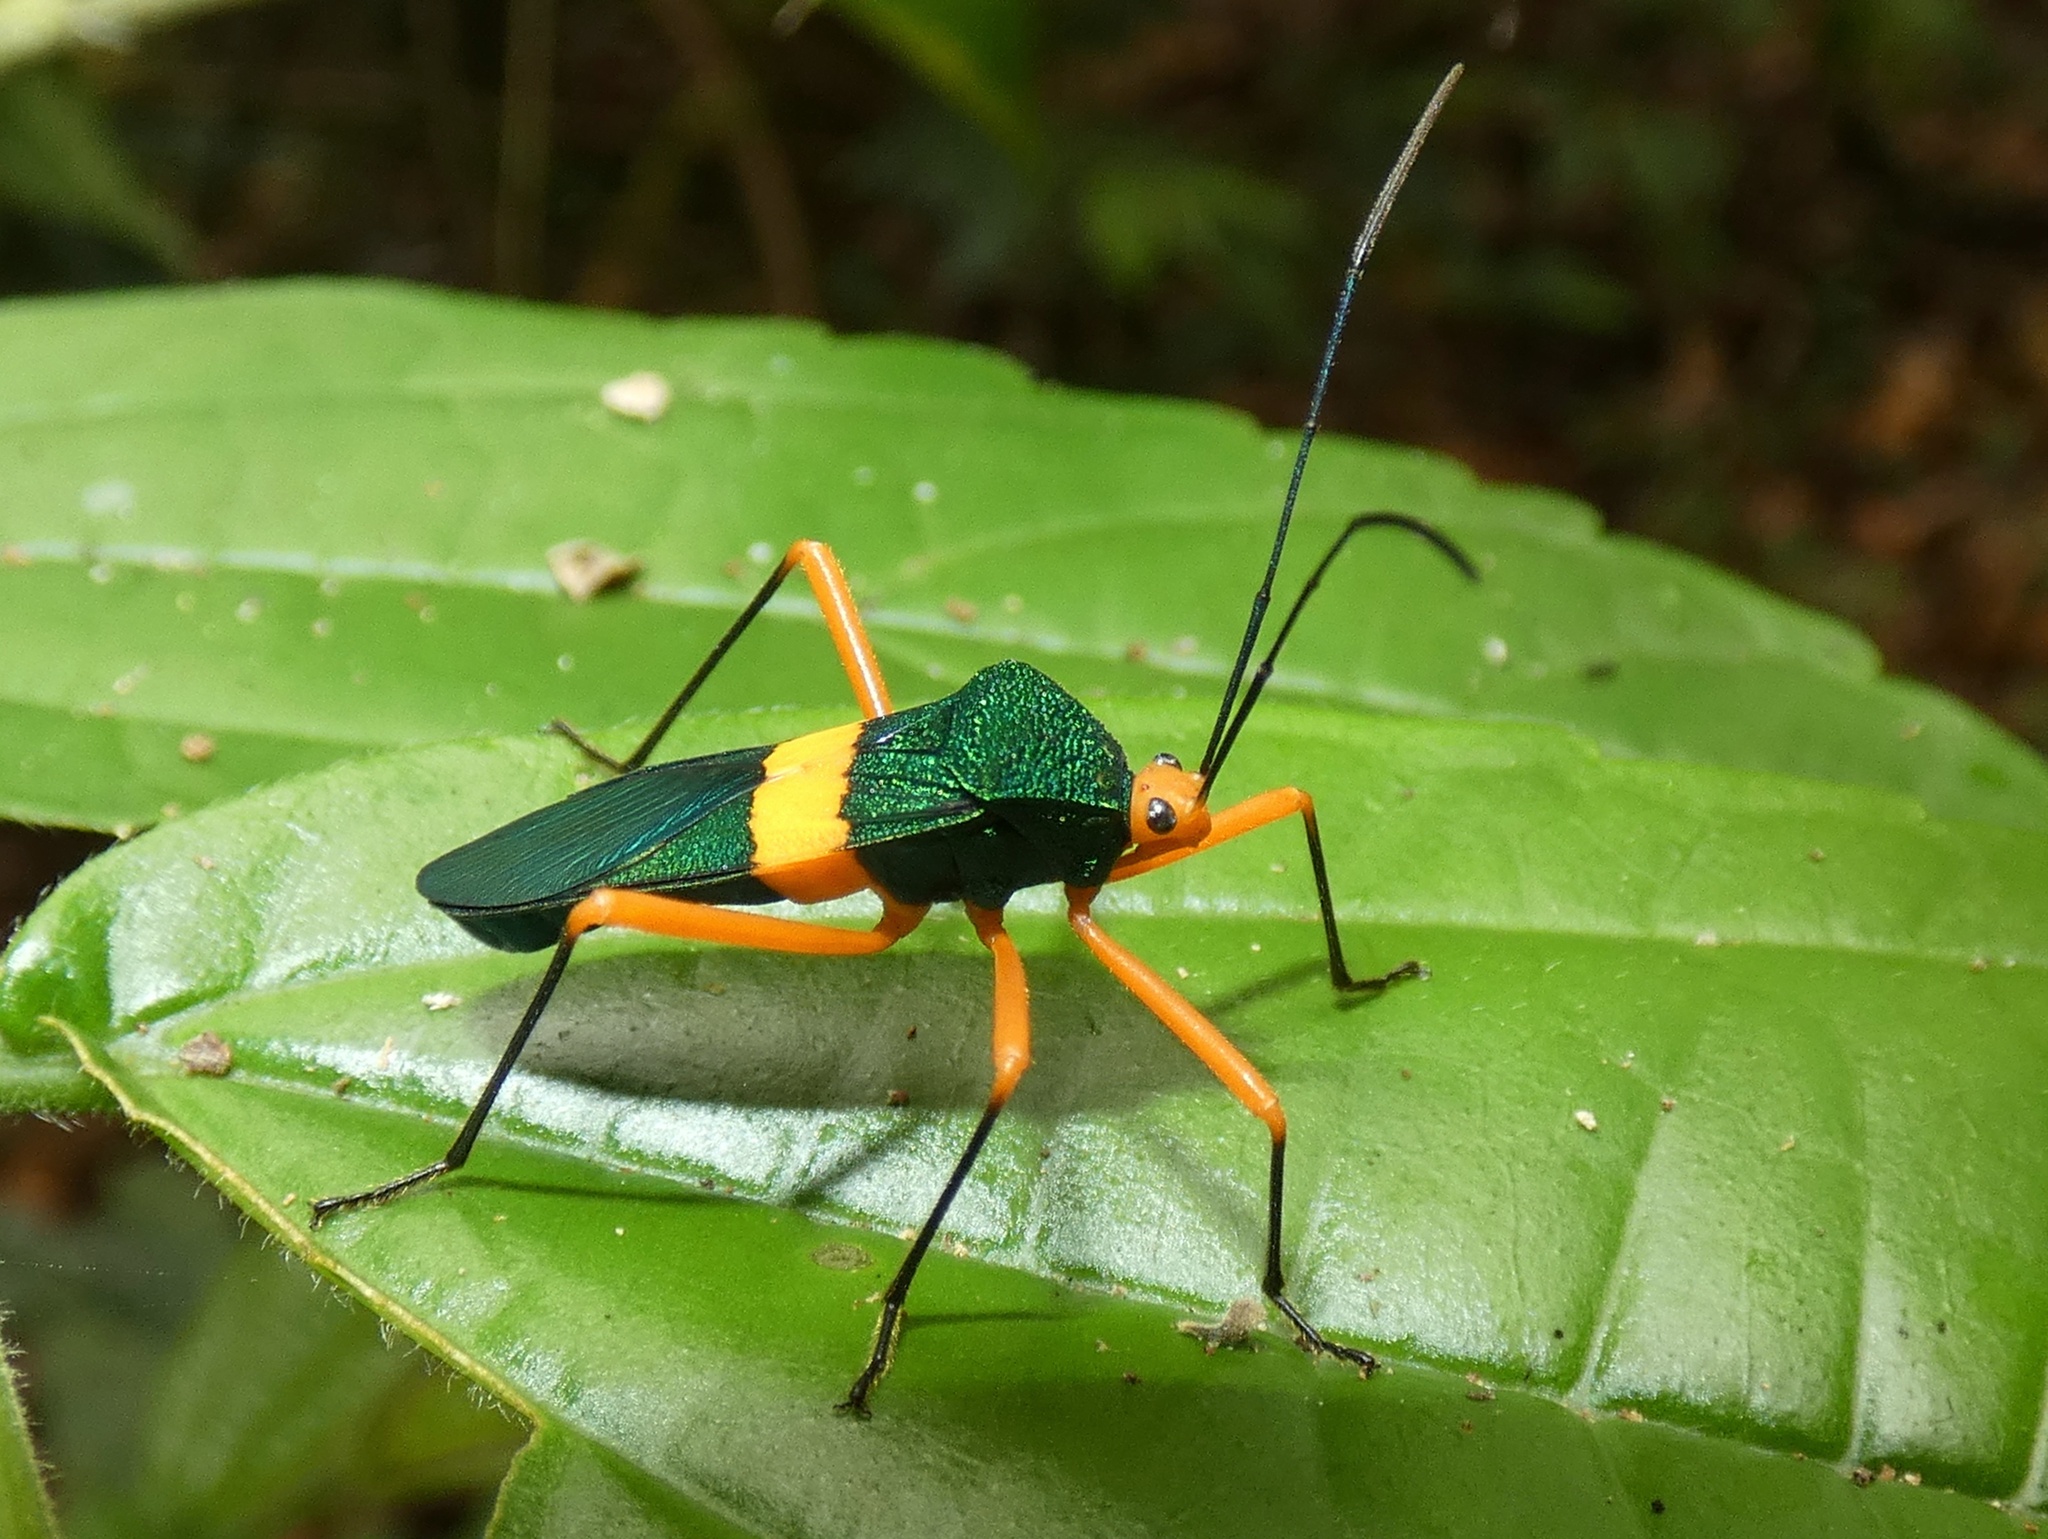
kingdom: Animalia
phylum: Arthropoda
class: Insecta
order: Hemiptera
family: Coreidae
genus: Paryphes
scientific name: Paryphes flavocinctus
